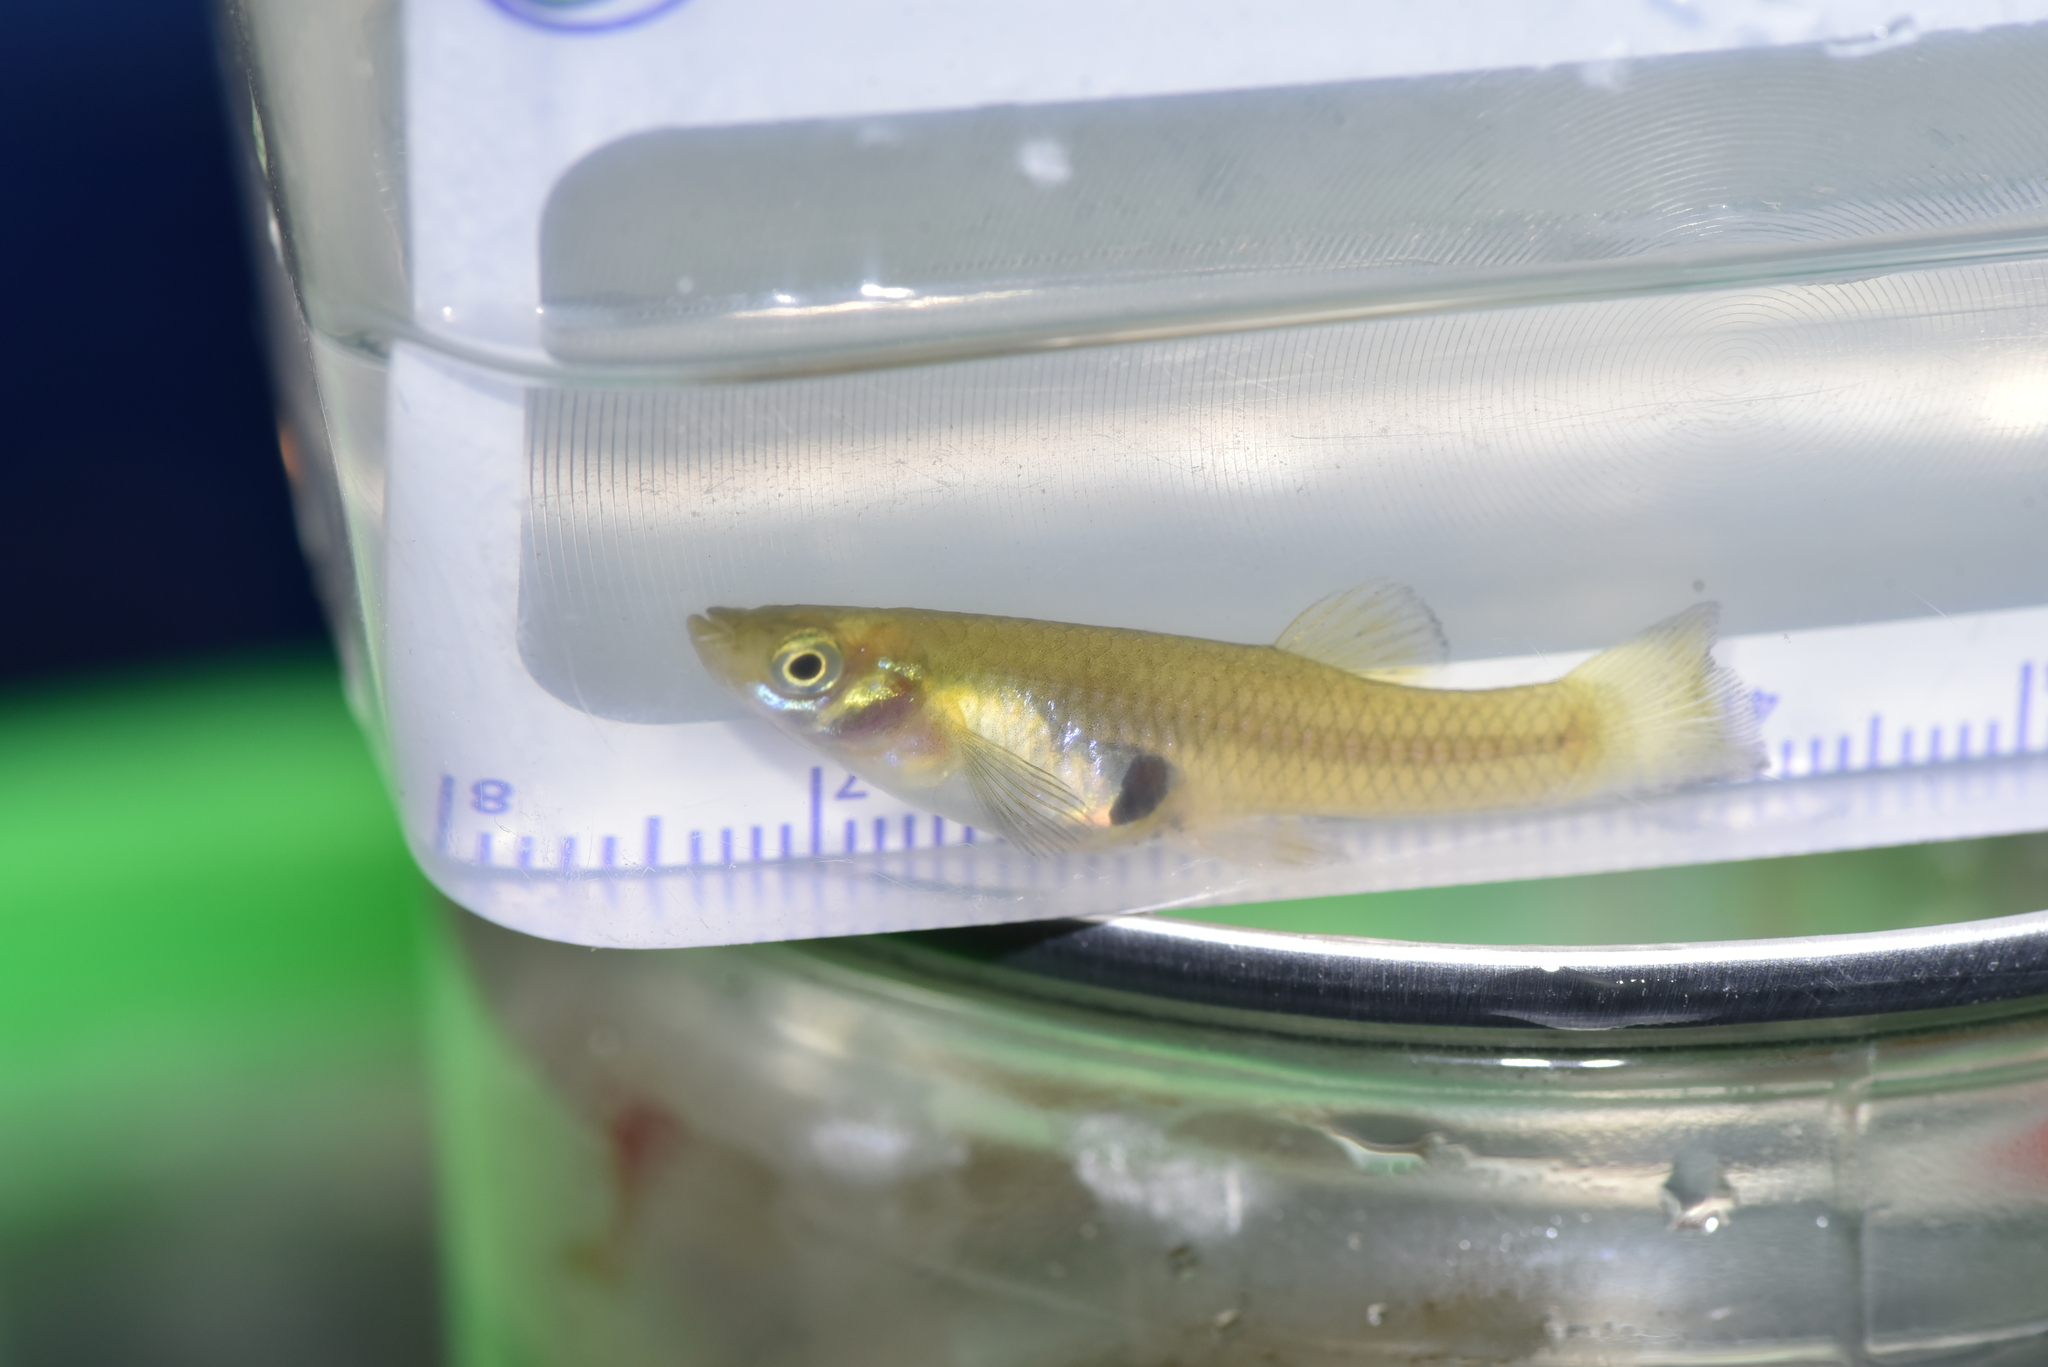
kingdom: Animalia
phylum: Chordata
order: Cyprinodontiformes
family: Poeciliidae
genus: Gambusia
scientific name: Gambusia affinis
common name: Mosquitofish
